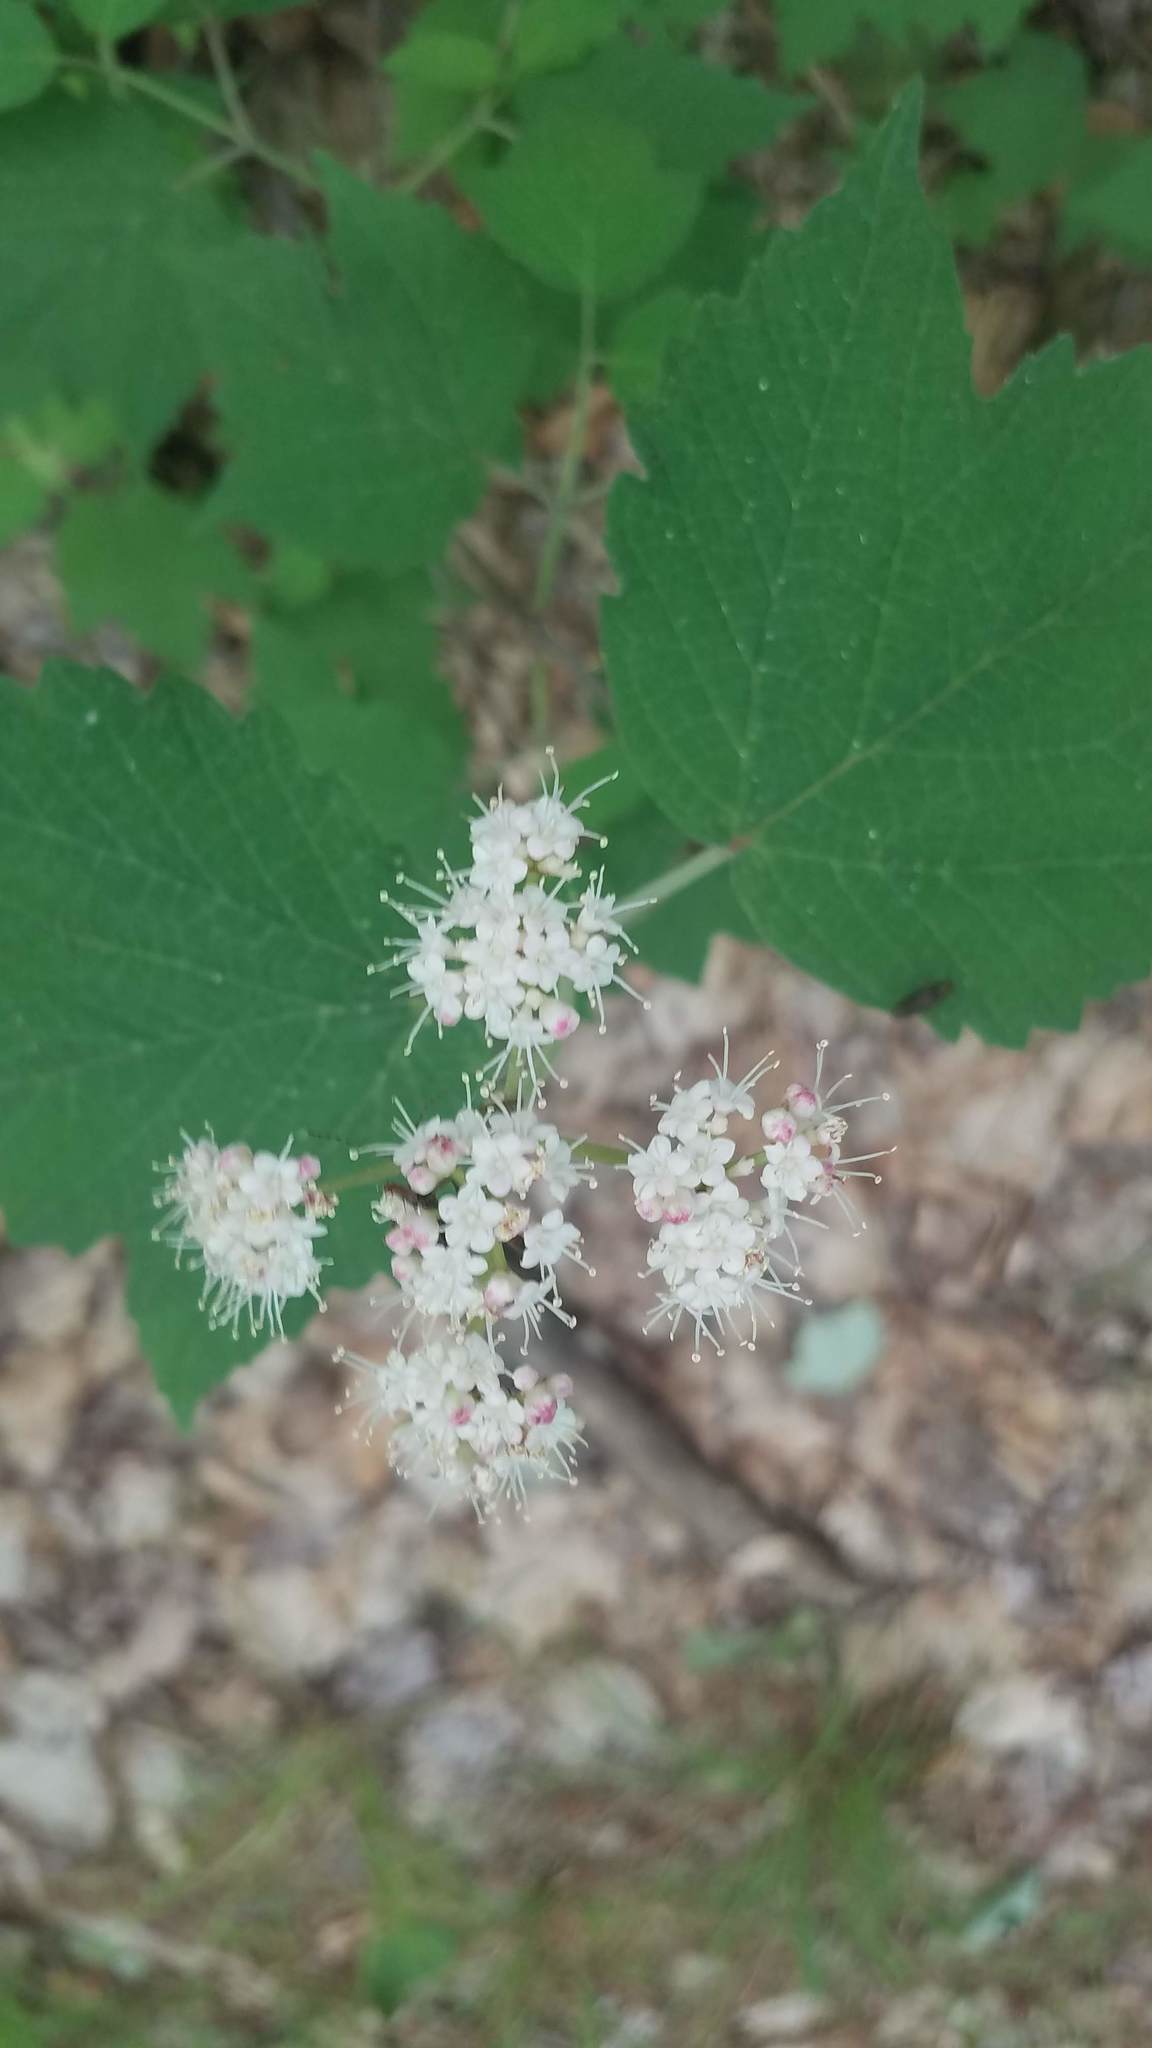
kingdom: Plantae
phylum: Tracheophyta
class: Magnoliopsida
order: Dipsacales
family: Viburnaceae
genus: Viburnum
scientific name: Viburnum acerifolium
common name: Dockmackie
